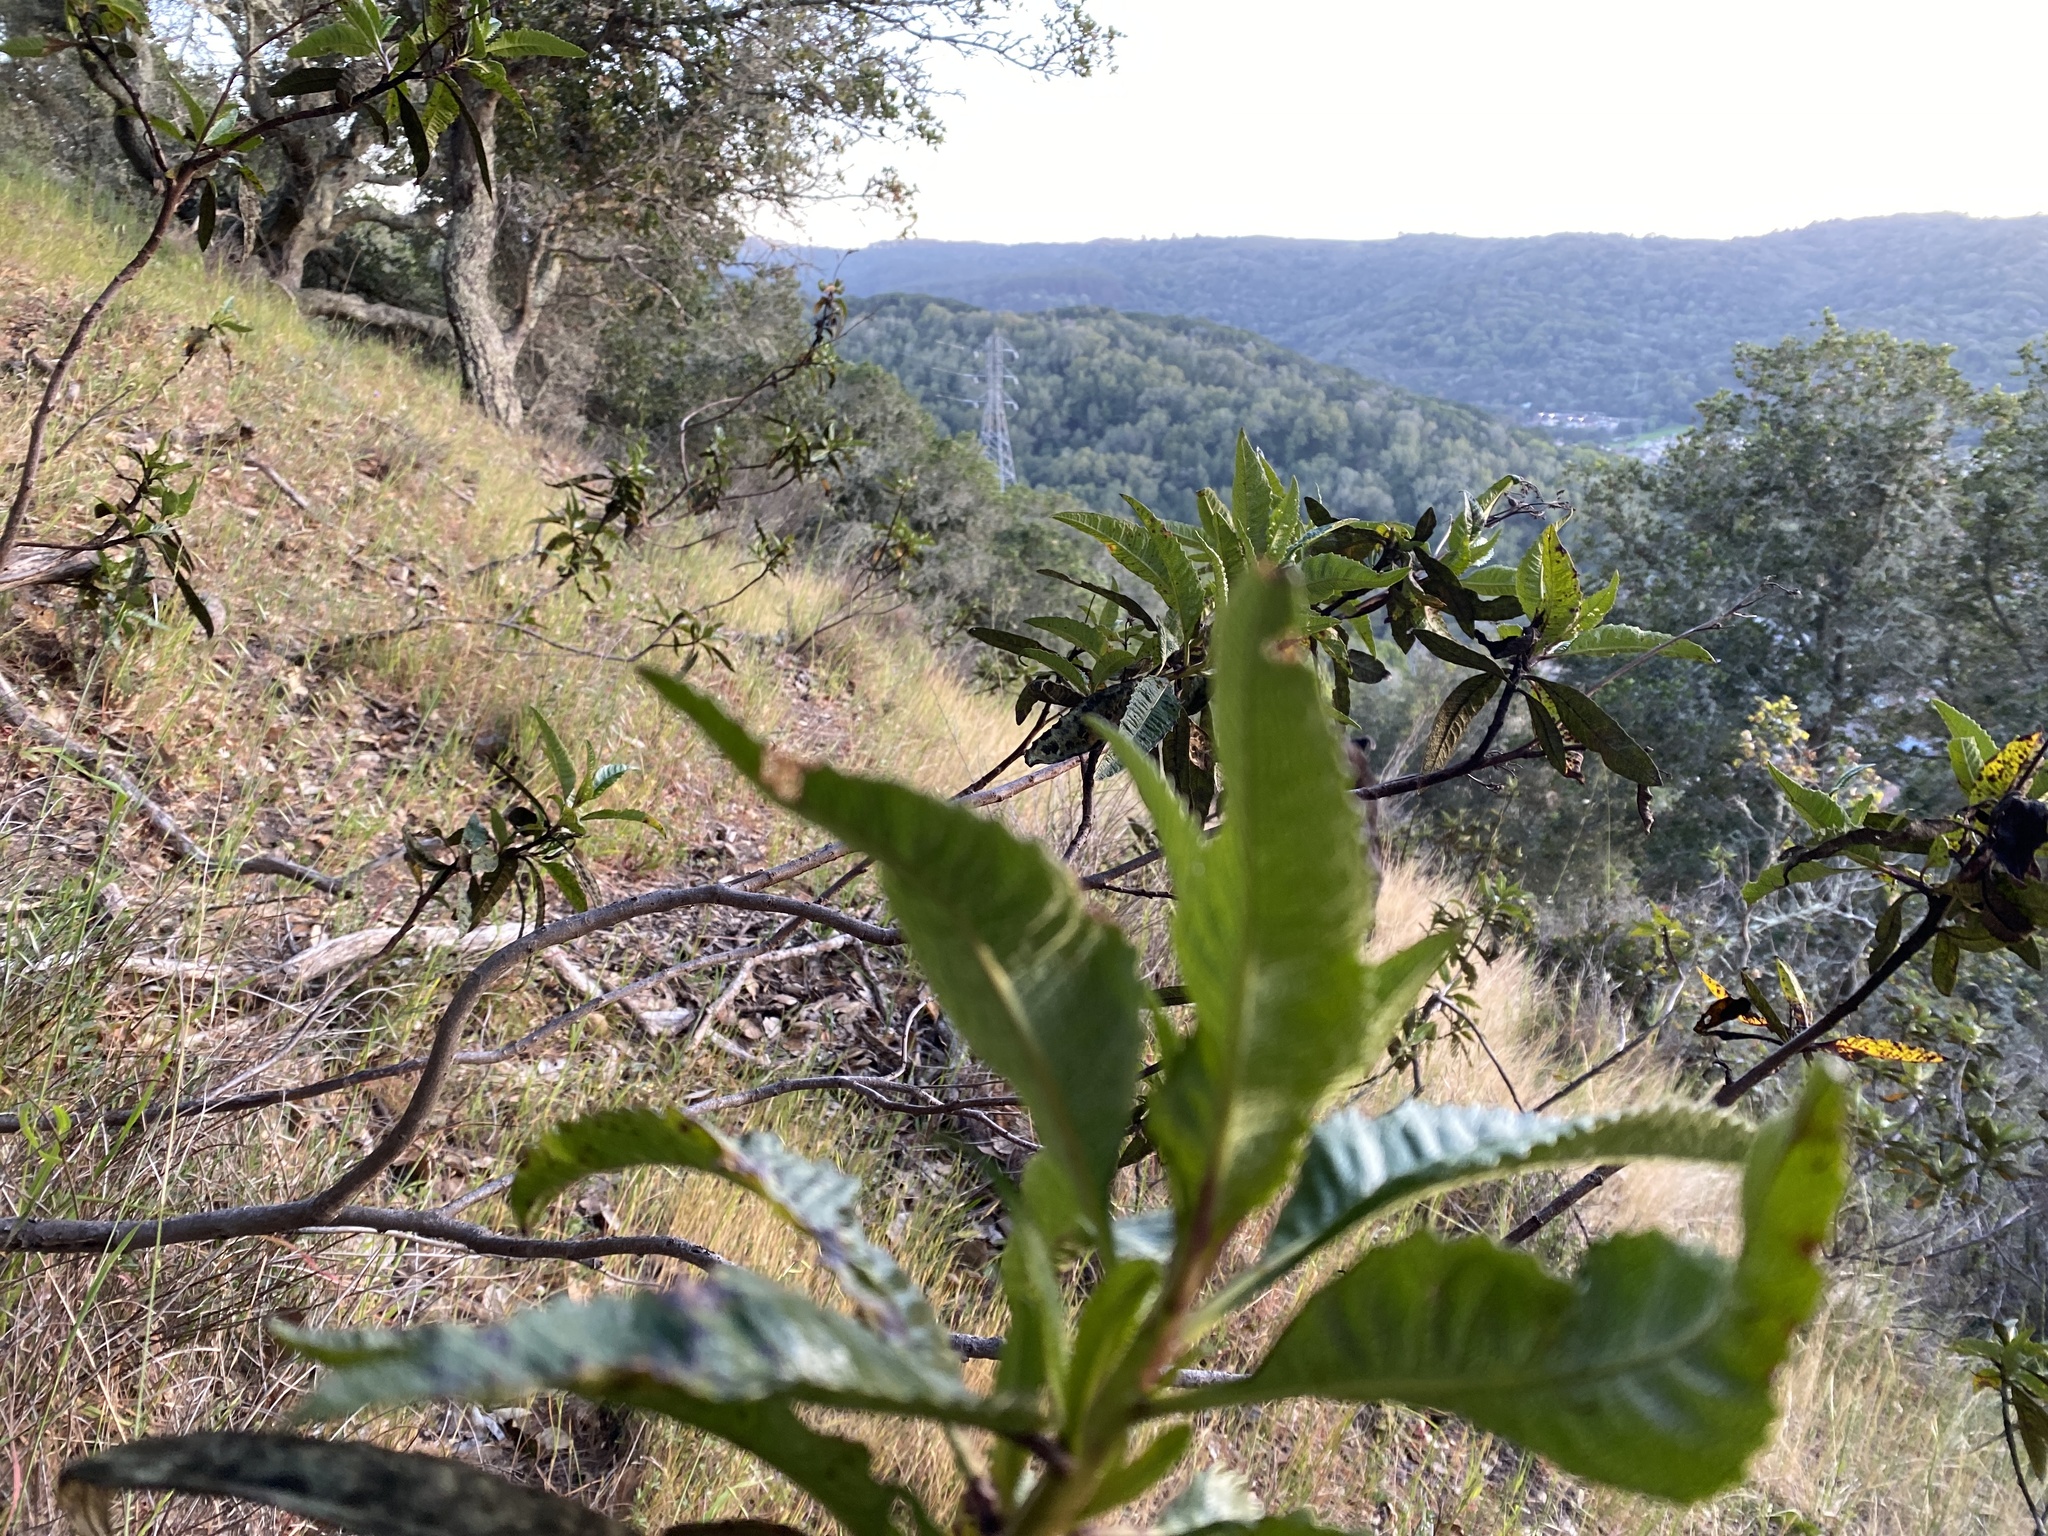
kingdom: Plantae
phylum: Tracheophyta
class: Magnoliopsida
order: Boraginales
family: Namaceae
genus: Eriodictyon
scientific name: Eriodictyon californicum
